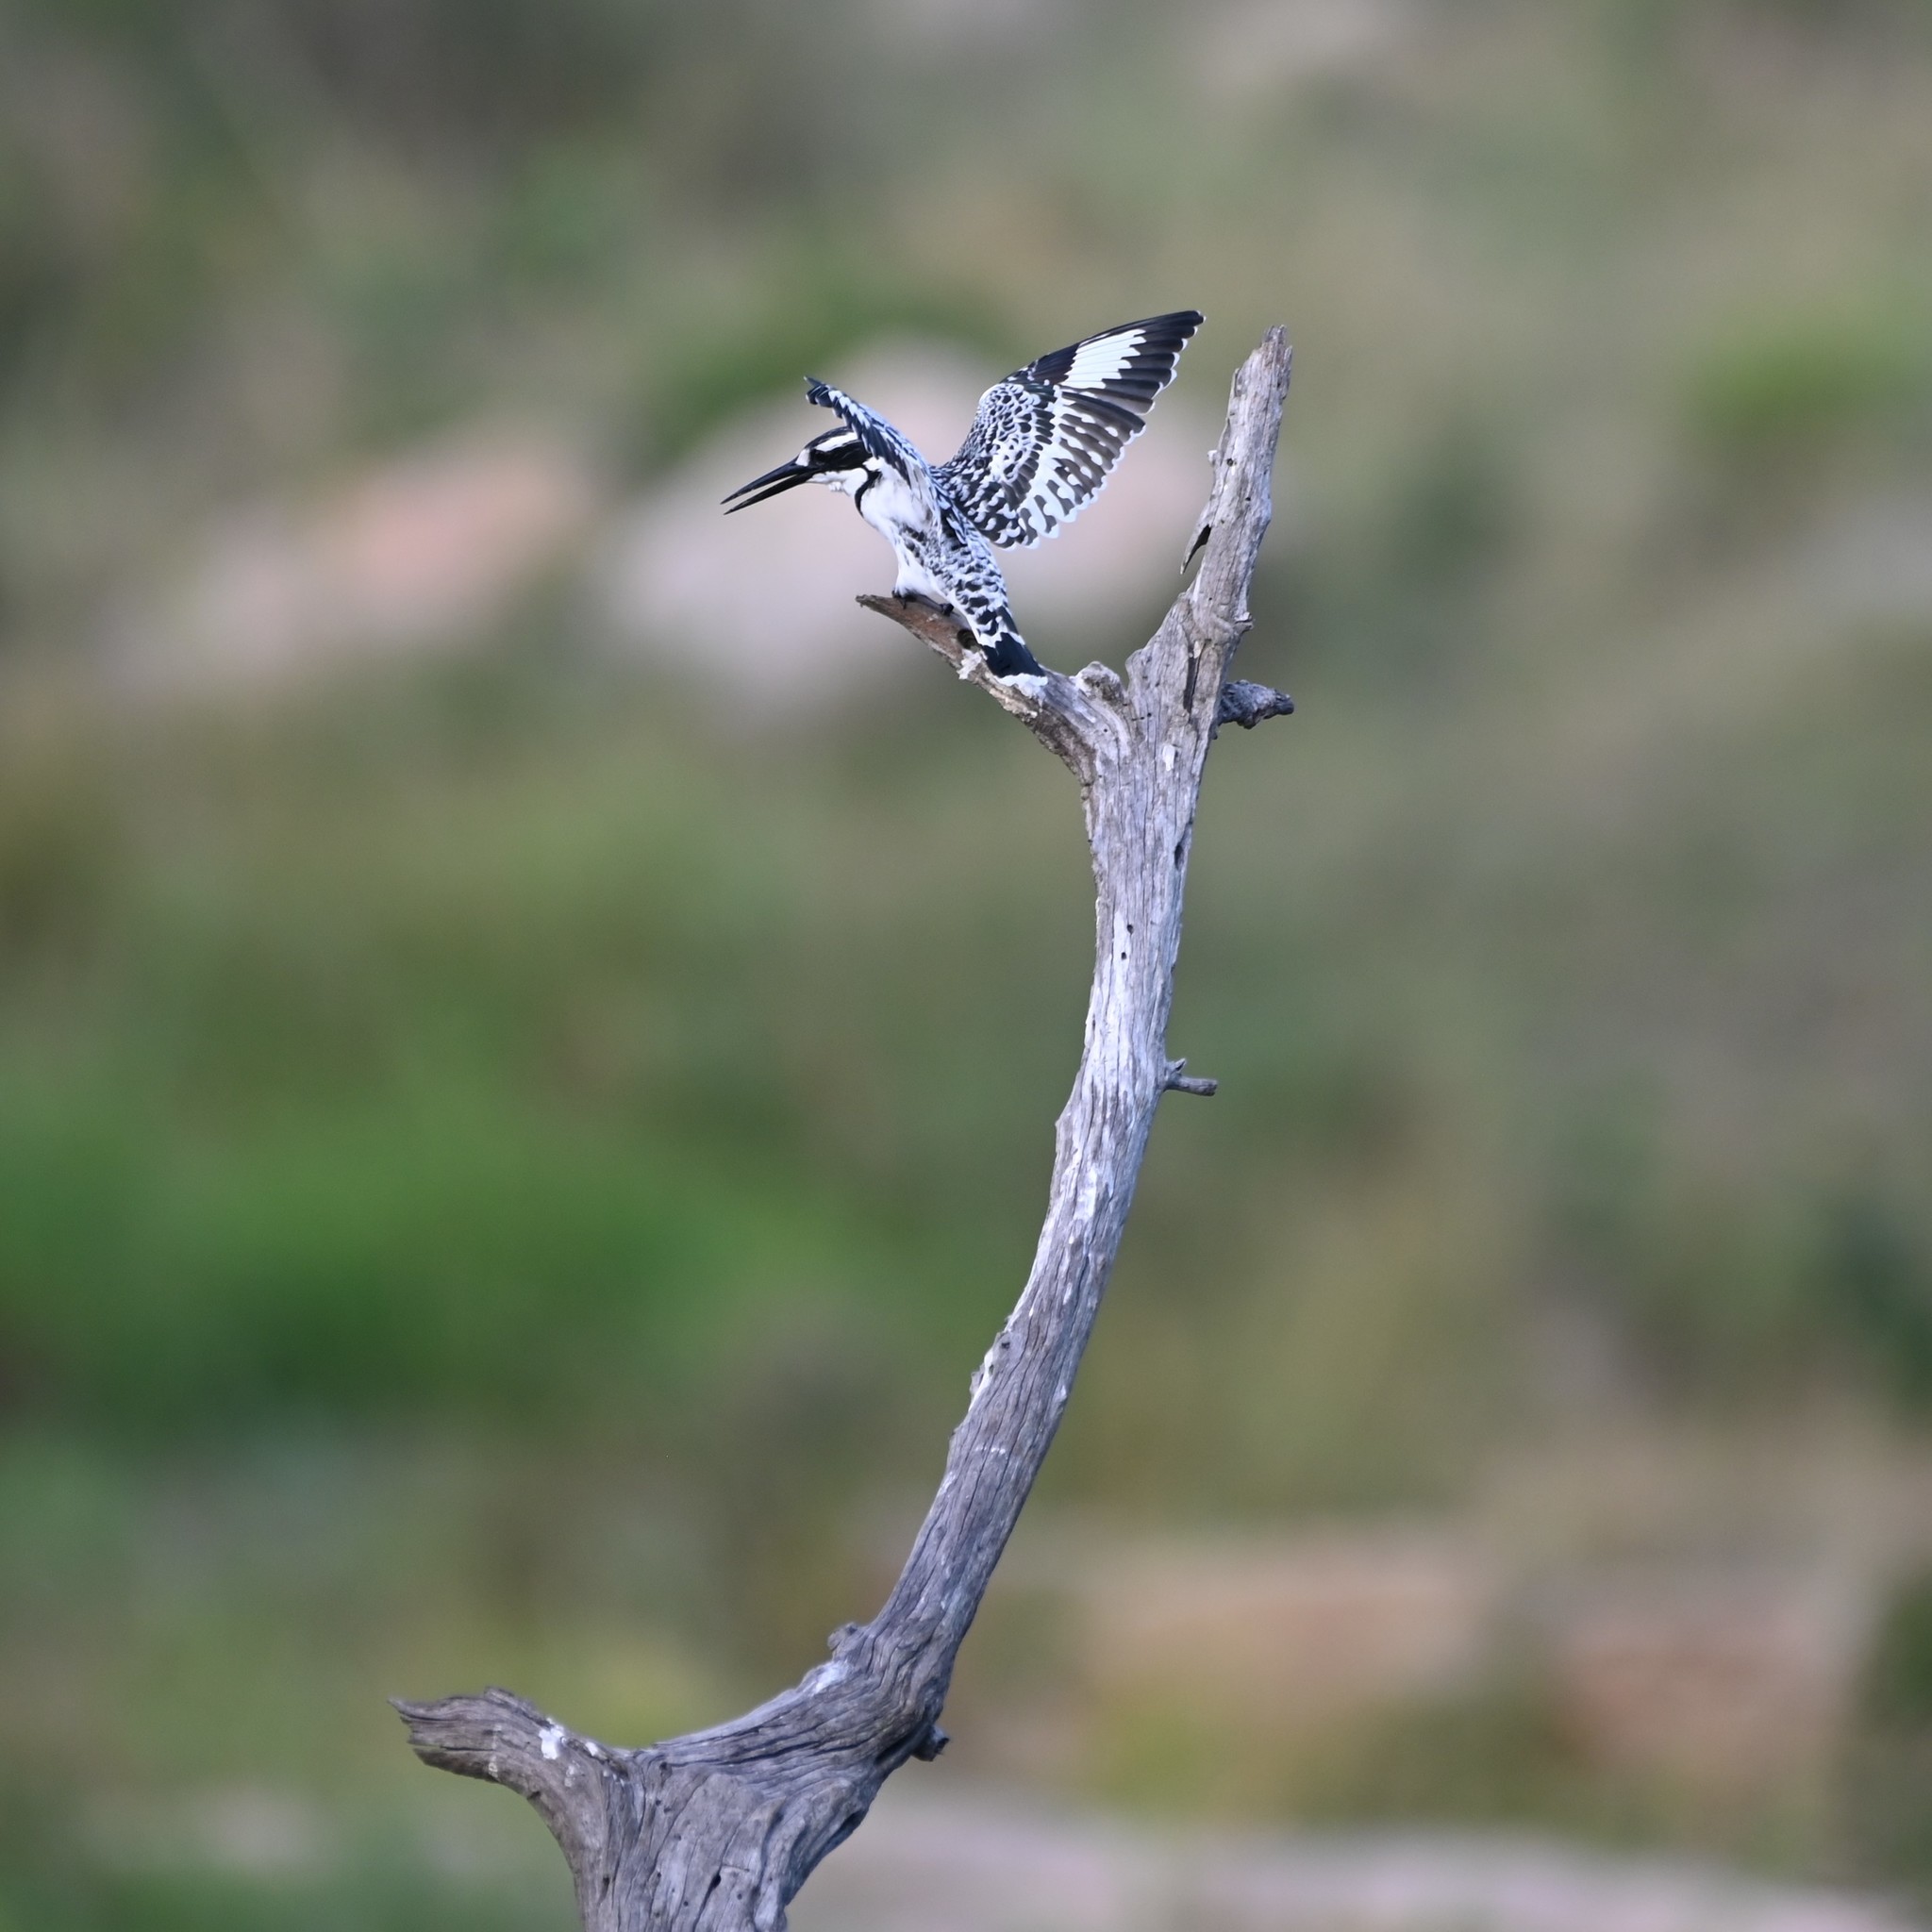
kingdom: Animalia
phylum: Chordata
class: Aves
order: Coraciiformes
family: Alcedinidae
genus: Ceryle
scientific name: Ceryle rudis
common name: Pied kingfisher
